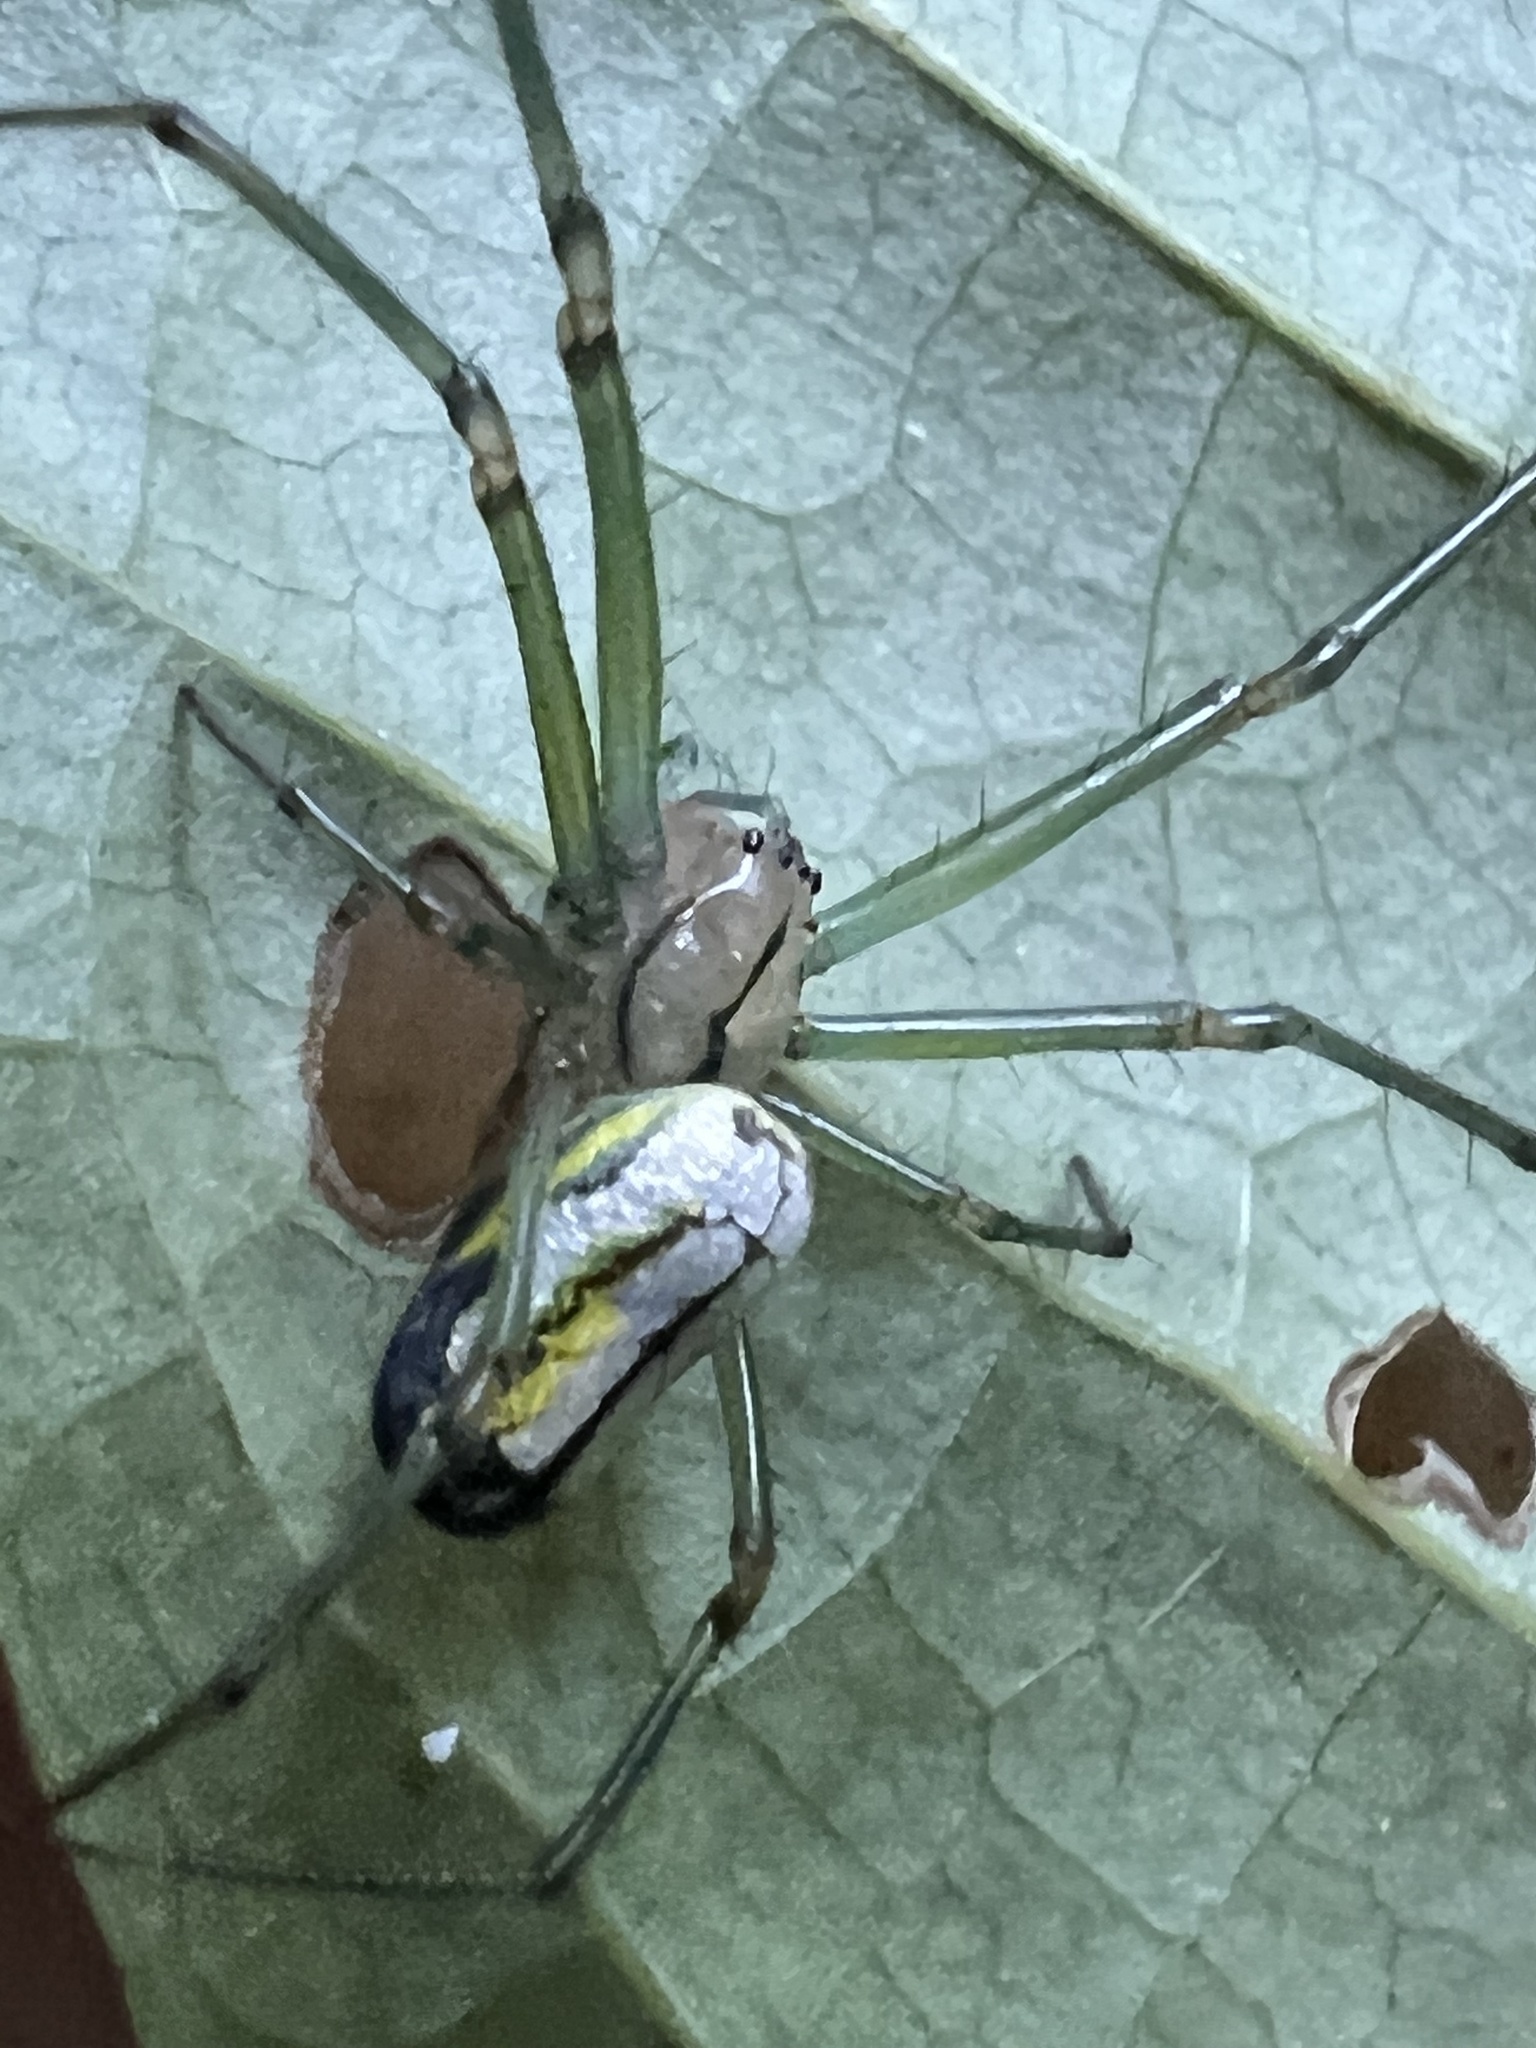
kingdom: Animalia
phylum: Arthropoda
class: Arachnida
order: Araneae
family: Tetragnathidae
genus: Leucauge
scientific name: Leucauge venusta
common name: Longjawed orb weavers
